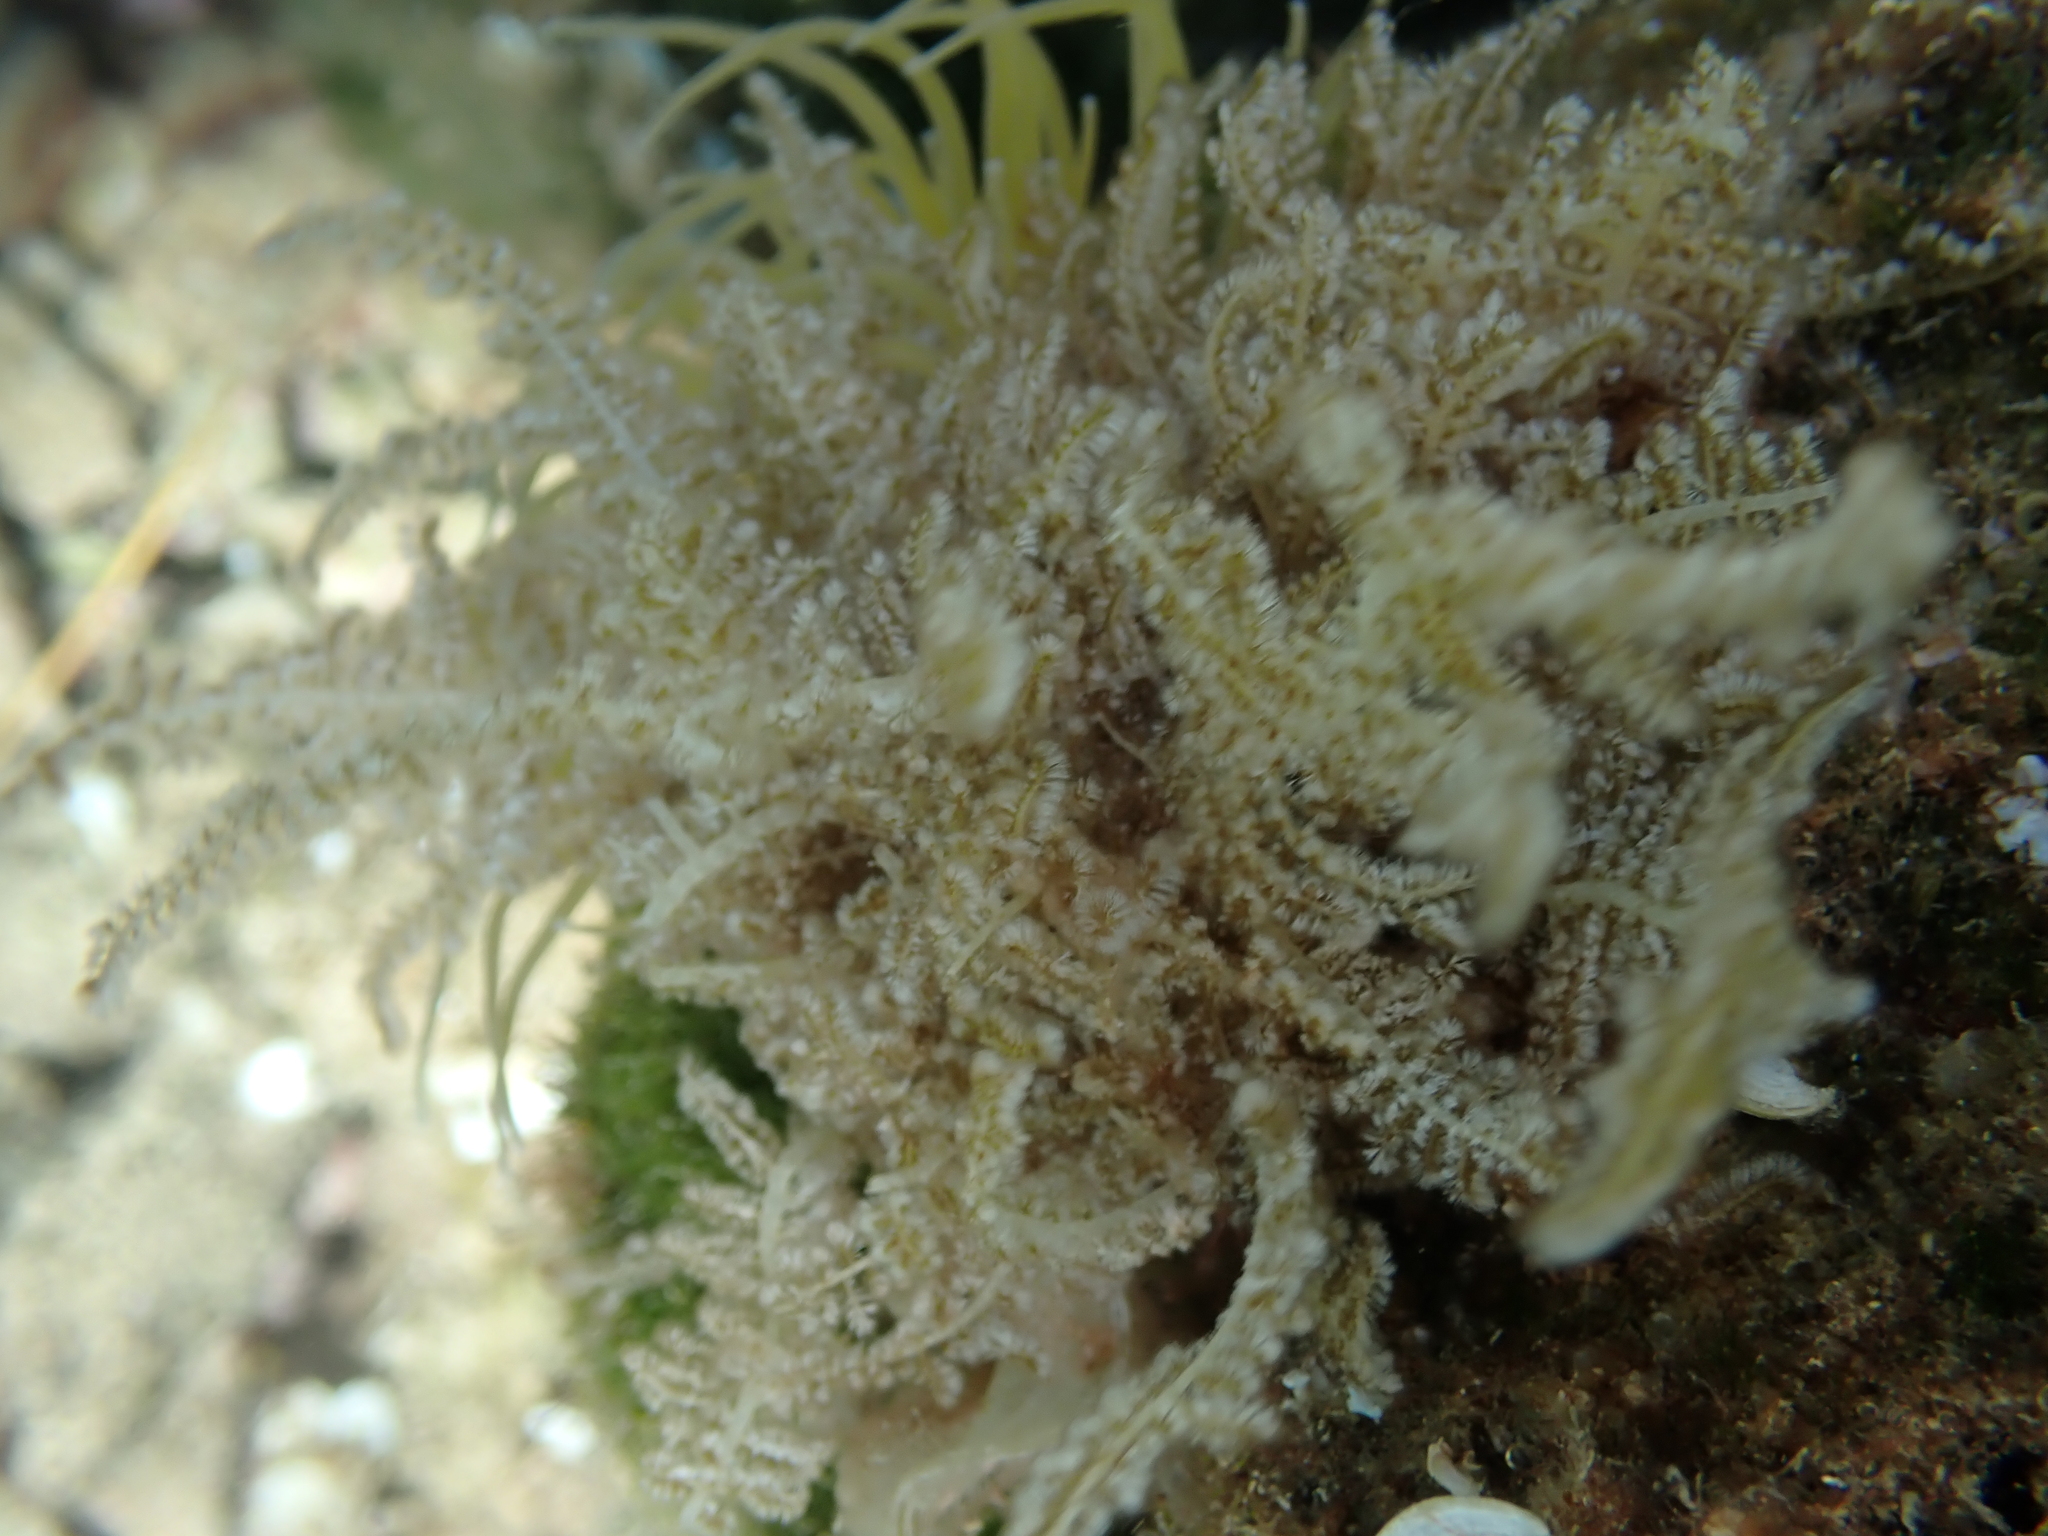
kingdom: Plantae
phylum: Rhodophyta
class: Florideophyceae
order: Ceramiales
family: Wrangeliaceae
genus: Wrangelia
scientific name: Wrangelia penicillata
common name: Pink bush algae
